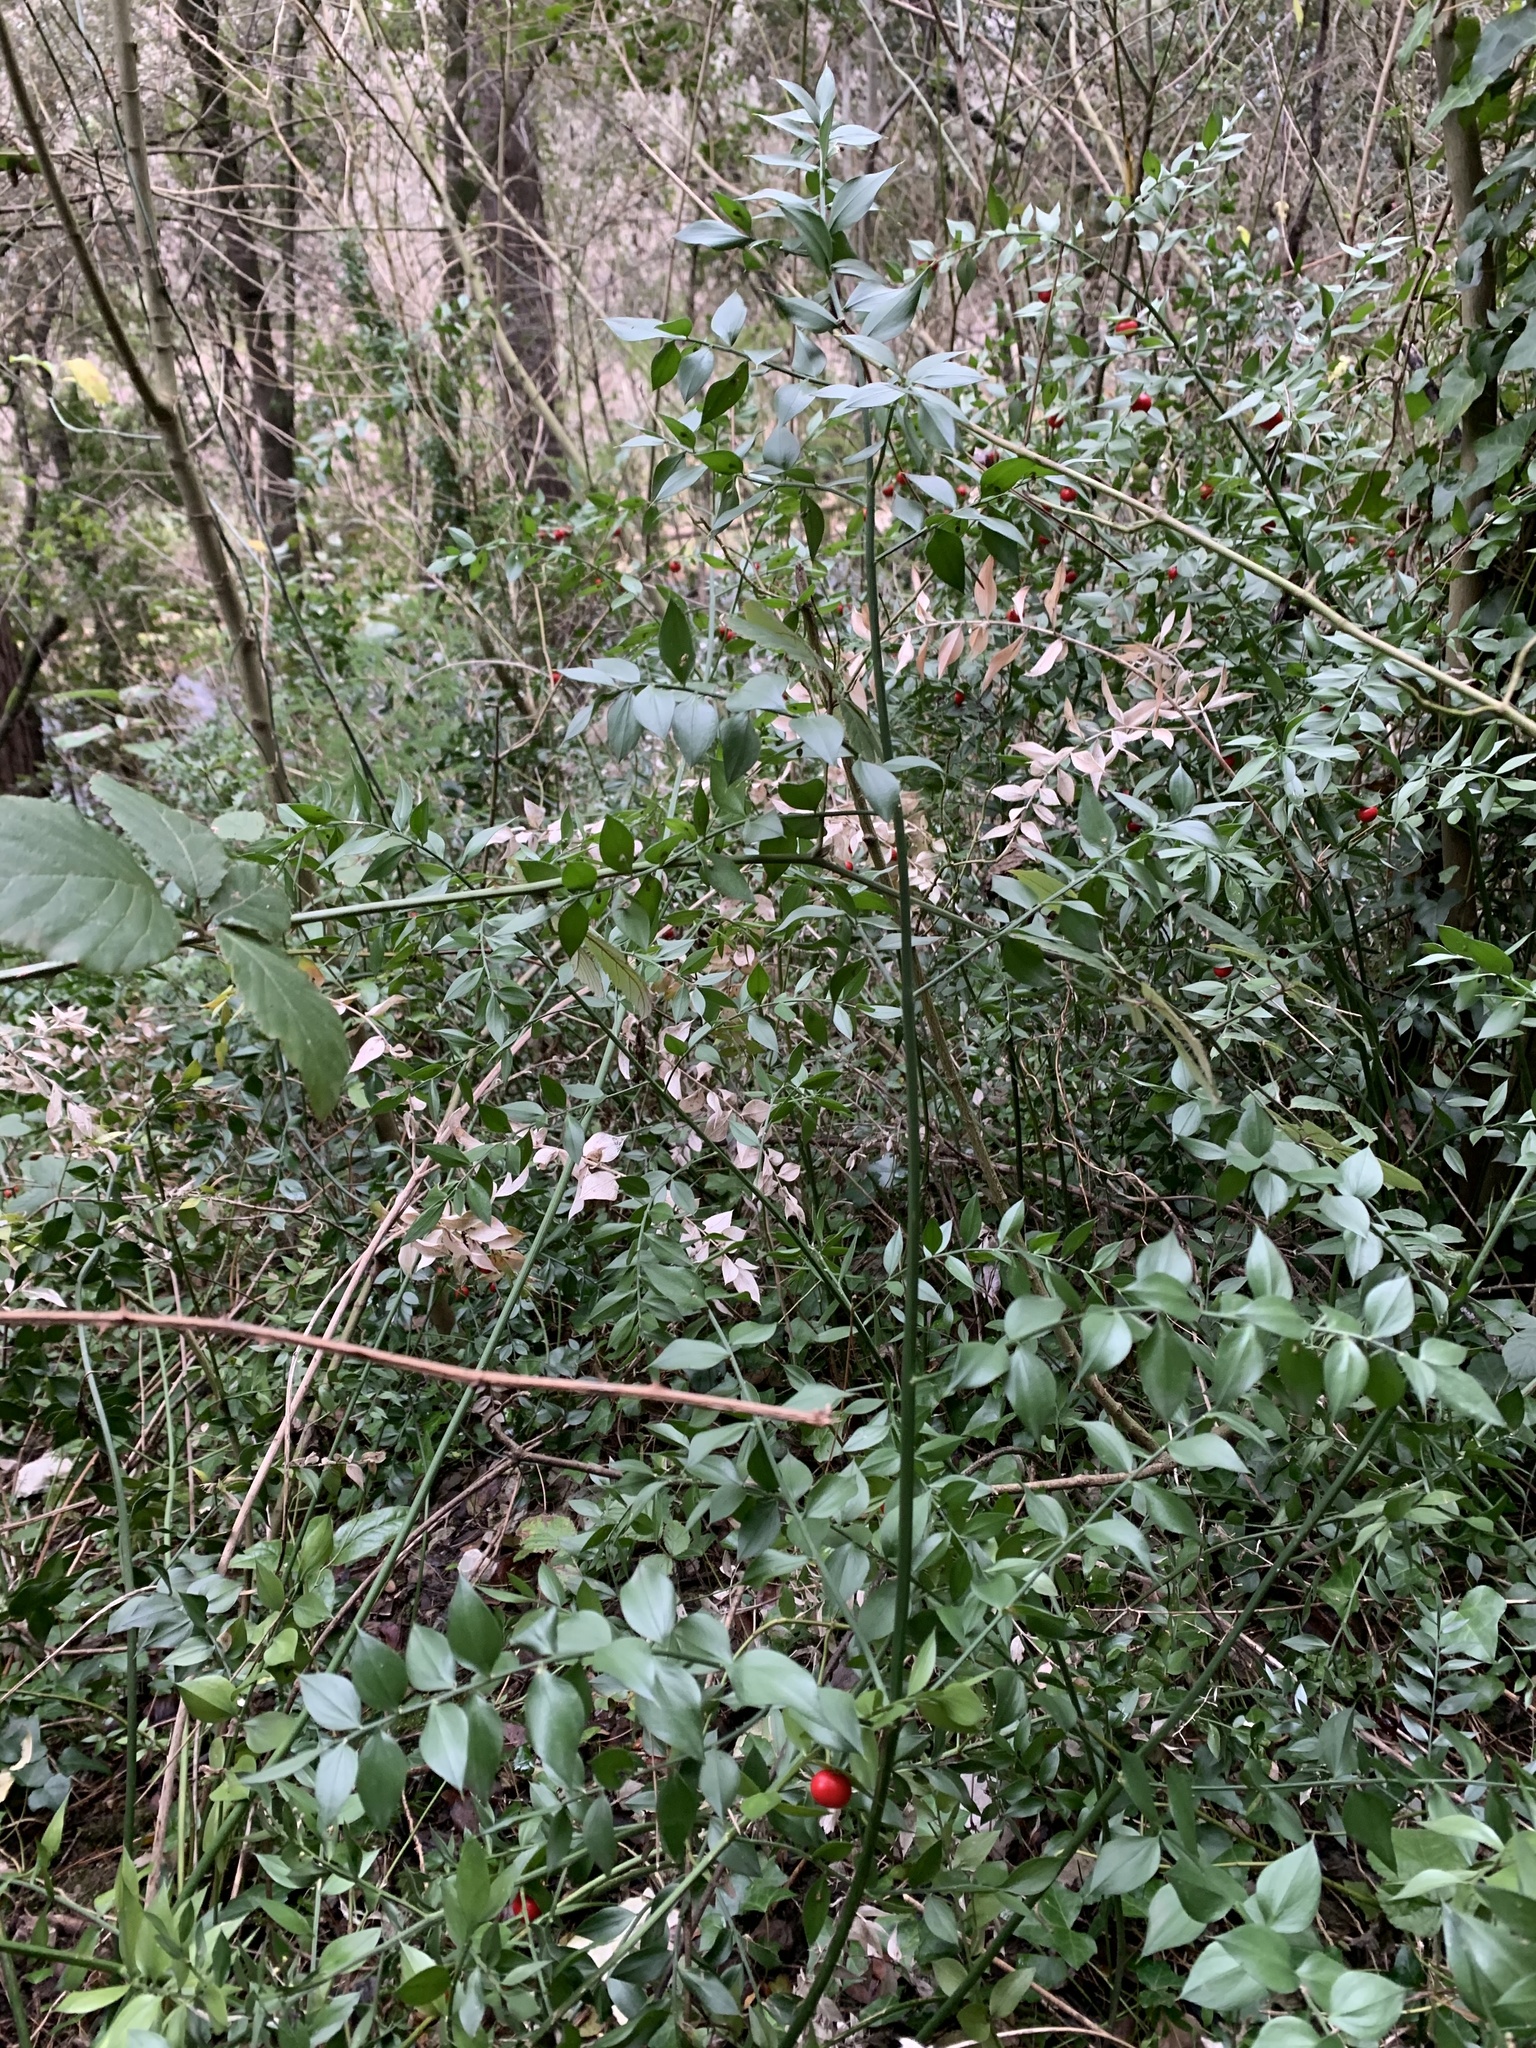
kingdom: Plantae
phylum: Tracheophyta
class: Liliopsida
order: Asparagales
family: Asparagaceae
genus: Ruscus
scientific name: Ruscus aculeatus
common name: Butcher's-broom
